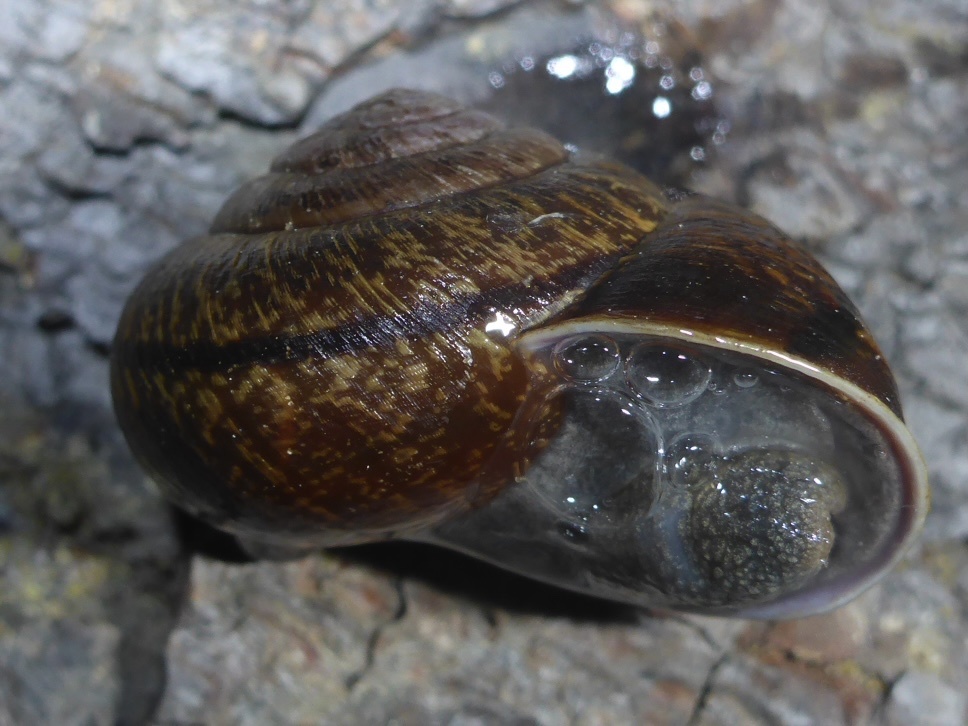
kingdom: Animalia
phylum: Mollusca
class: Gastropoda
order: Stylommatophora
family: Xanthonychidae
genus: Helminthoglypta
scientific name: Helminthoglypta arrosa
